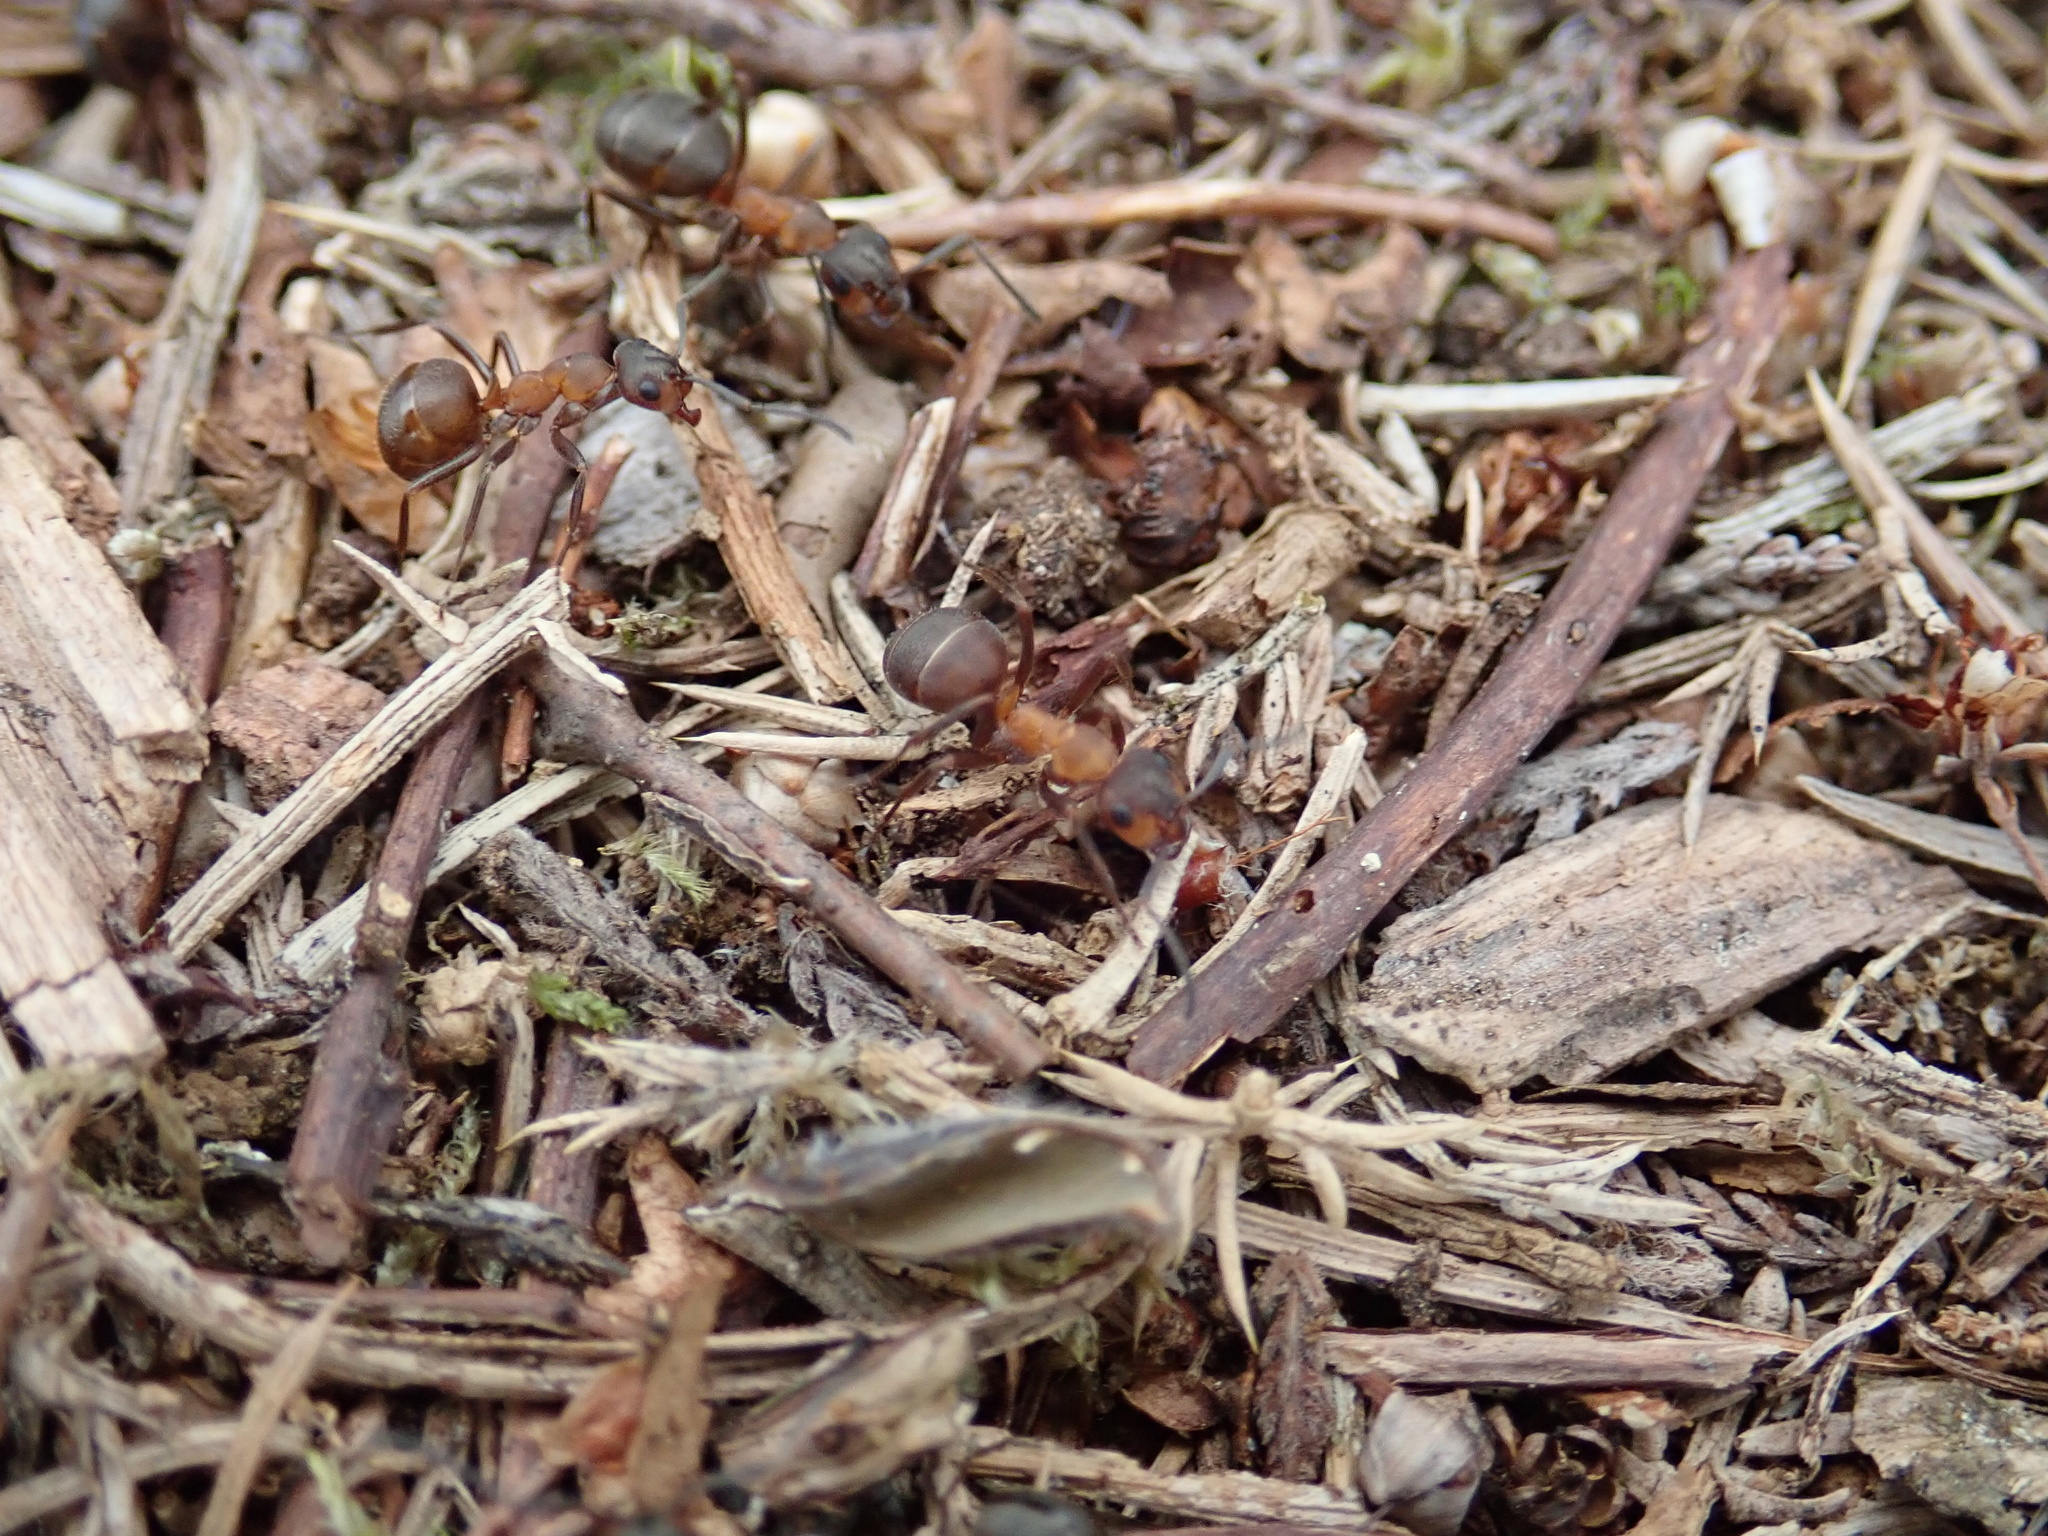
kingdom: Animalia
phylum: Arthropoda
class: Insecta
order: Hymenoptera
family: Formicidae
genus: Formica
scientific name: Formica
